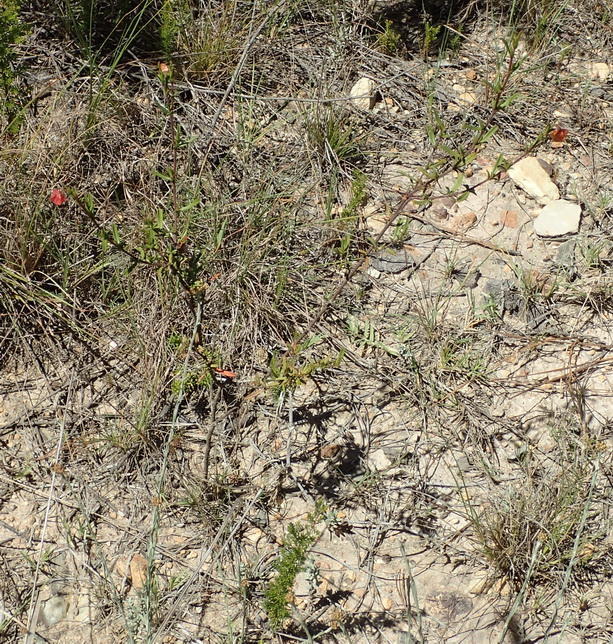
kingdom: Plantae
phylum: Tracheophyta
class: Magnoliopsida
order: Malvales
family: Malvaceae
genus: Hermannia
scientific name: Hermannia angularis
